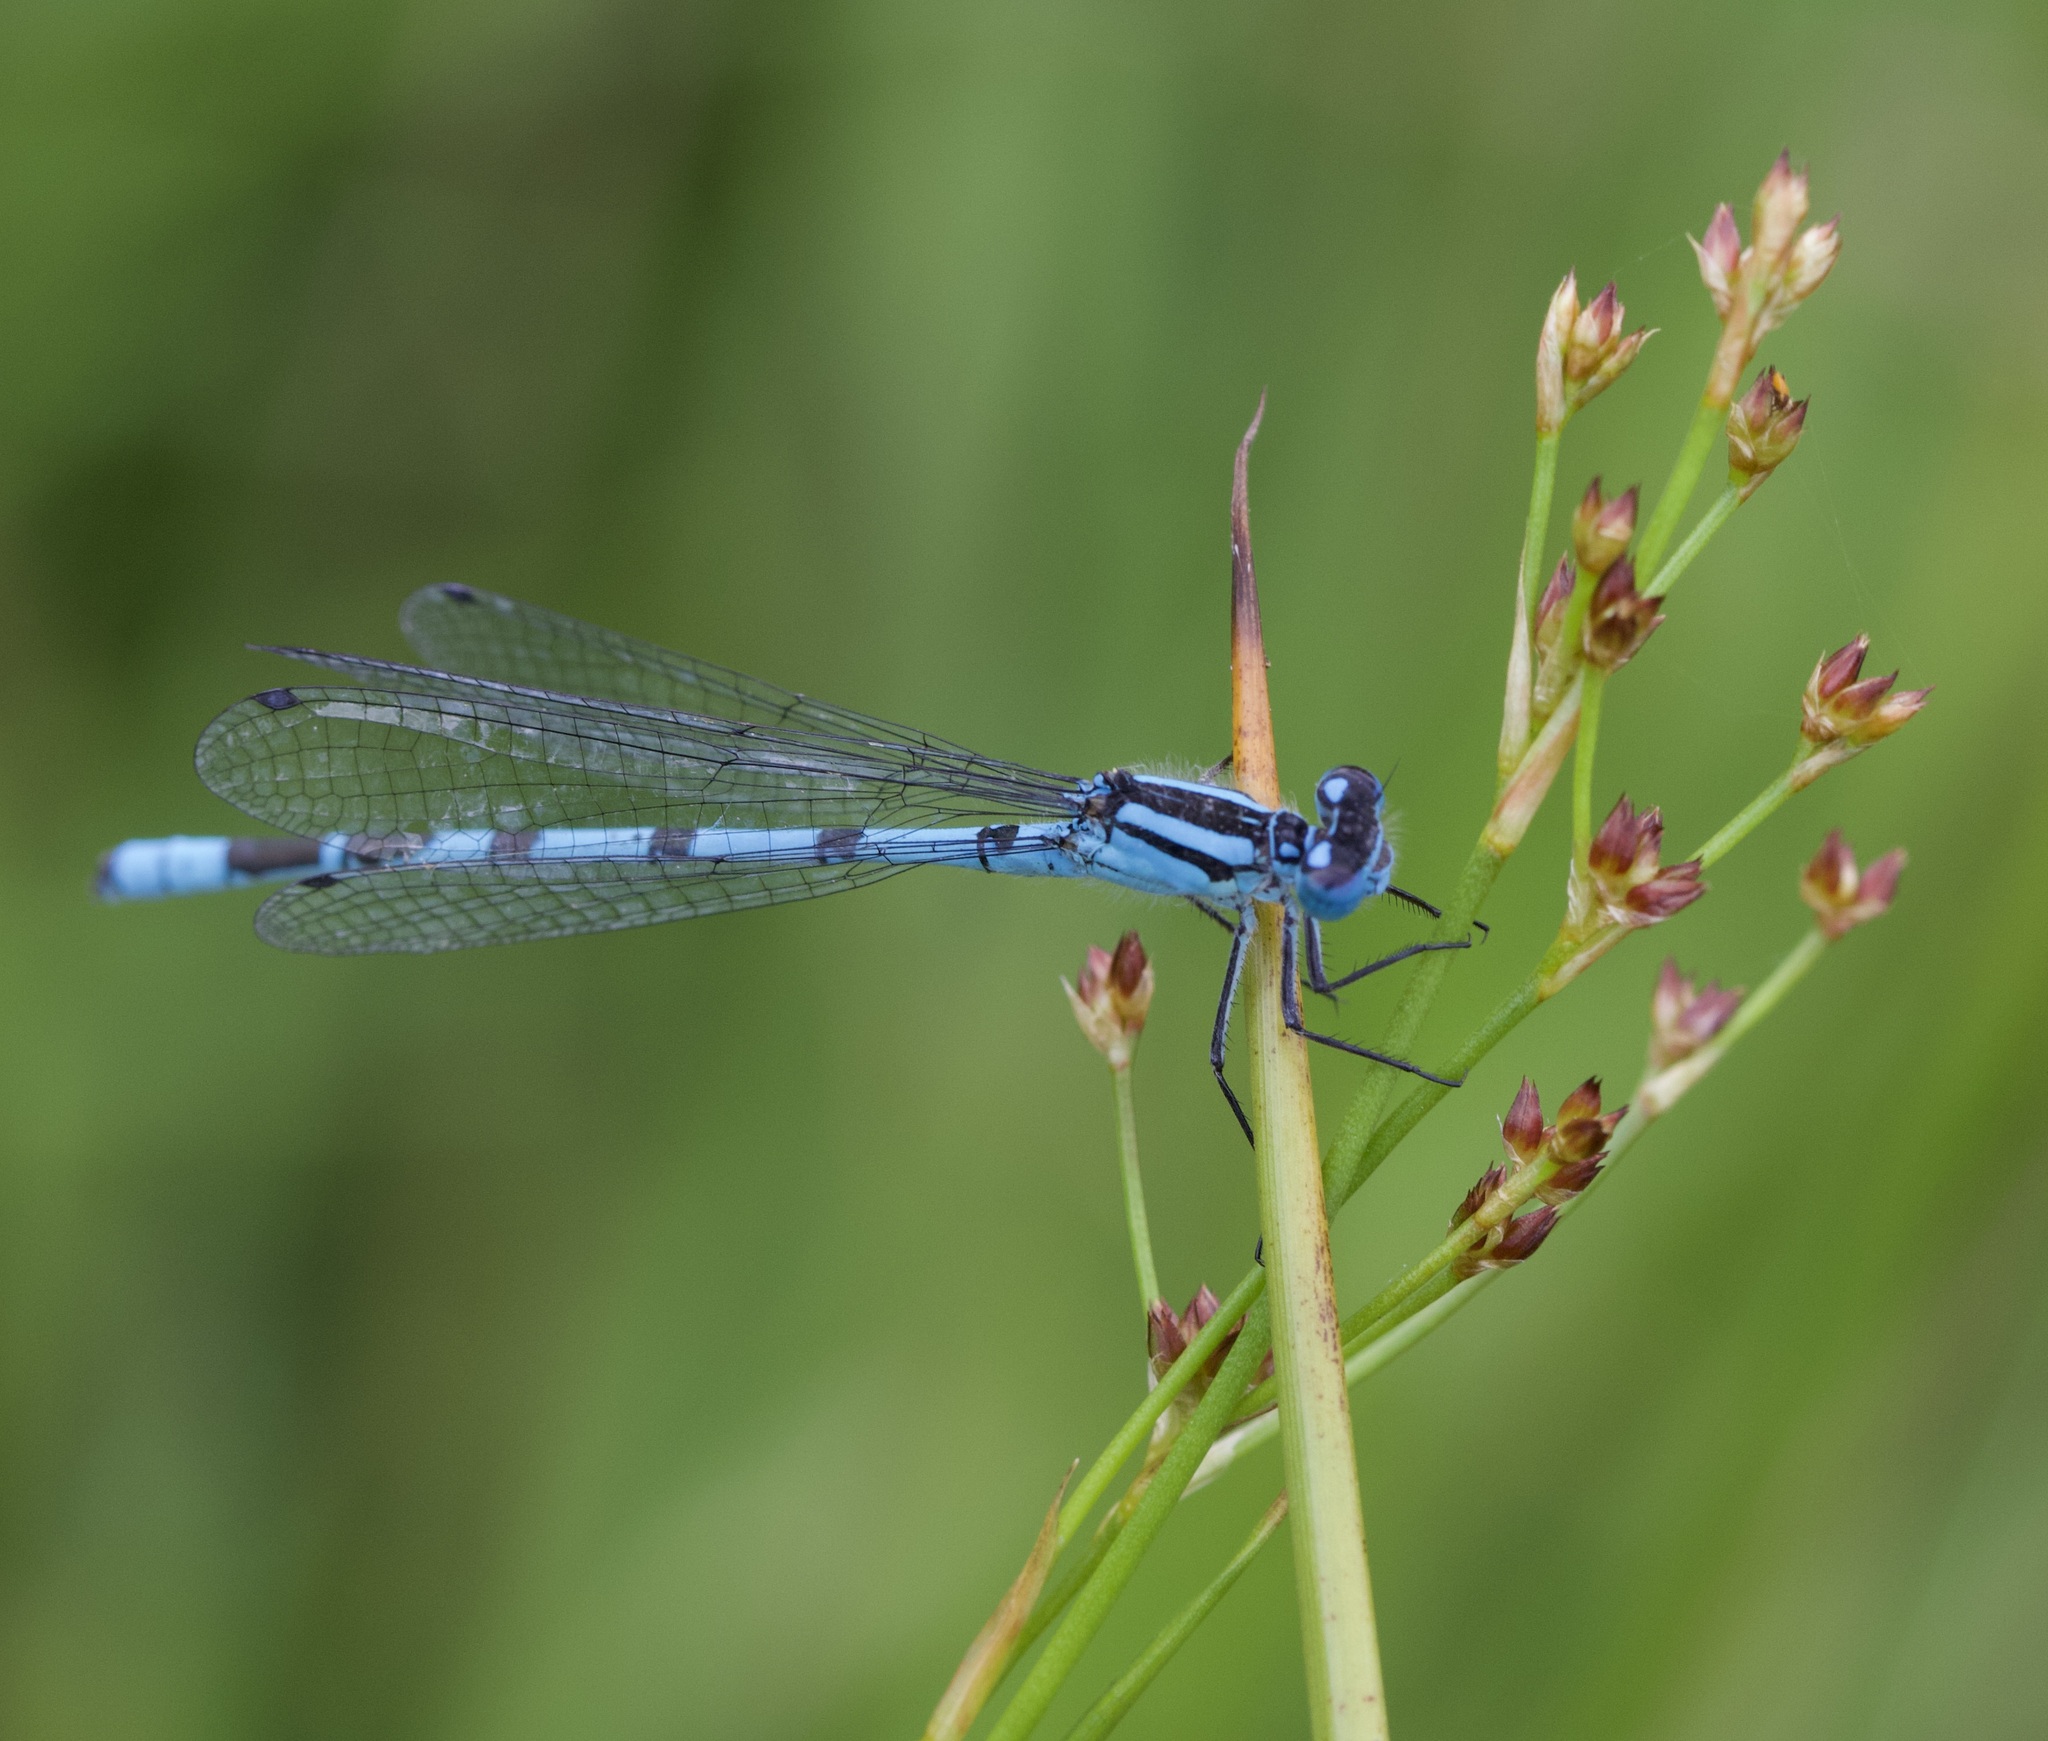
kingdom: Animalia
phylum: Arthropoda
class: Insecta
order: Odonata
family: Coenagrionidae
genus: Enallagma
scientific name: Enallagma cyathigerum
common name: Common blue damselfly
